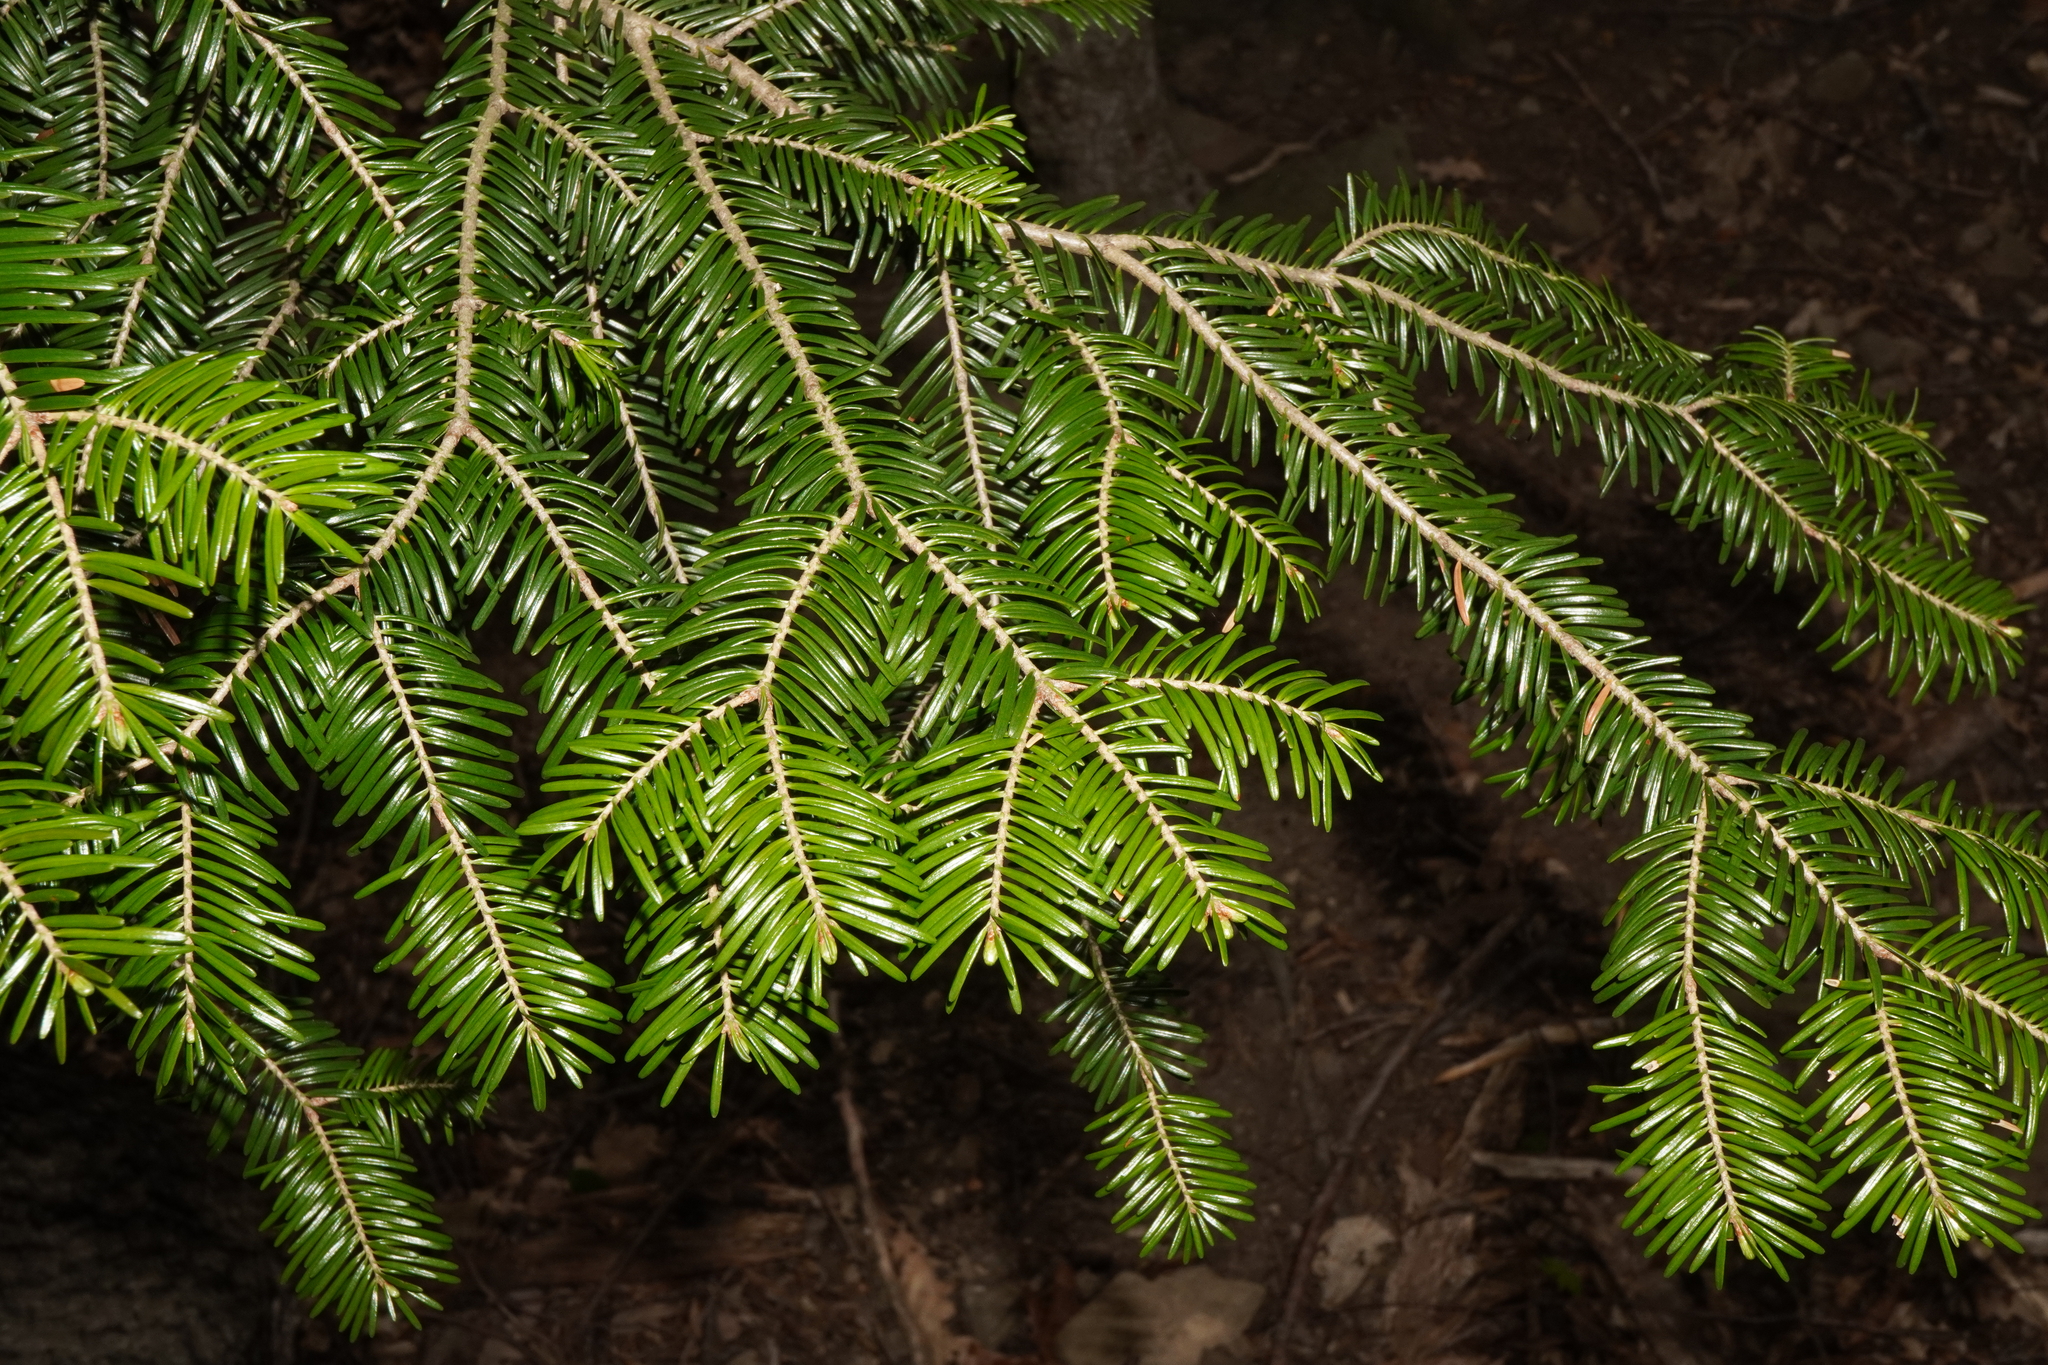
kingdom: Plantae
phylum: Tracheophyta
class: Pinopsida
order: Pinales
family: Pinaceae
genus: Abies
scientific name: Abies alba
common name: Silver fir
